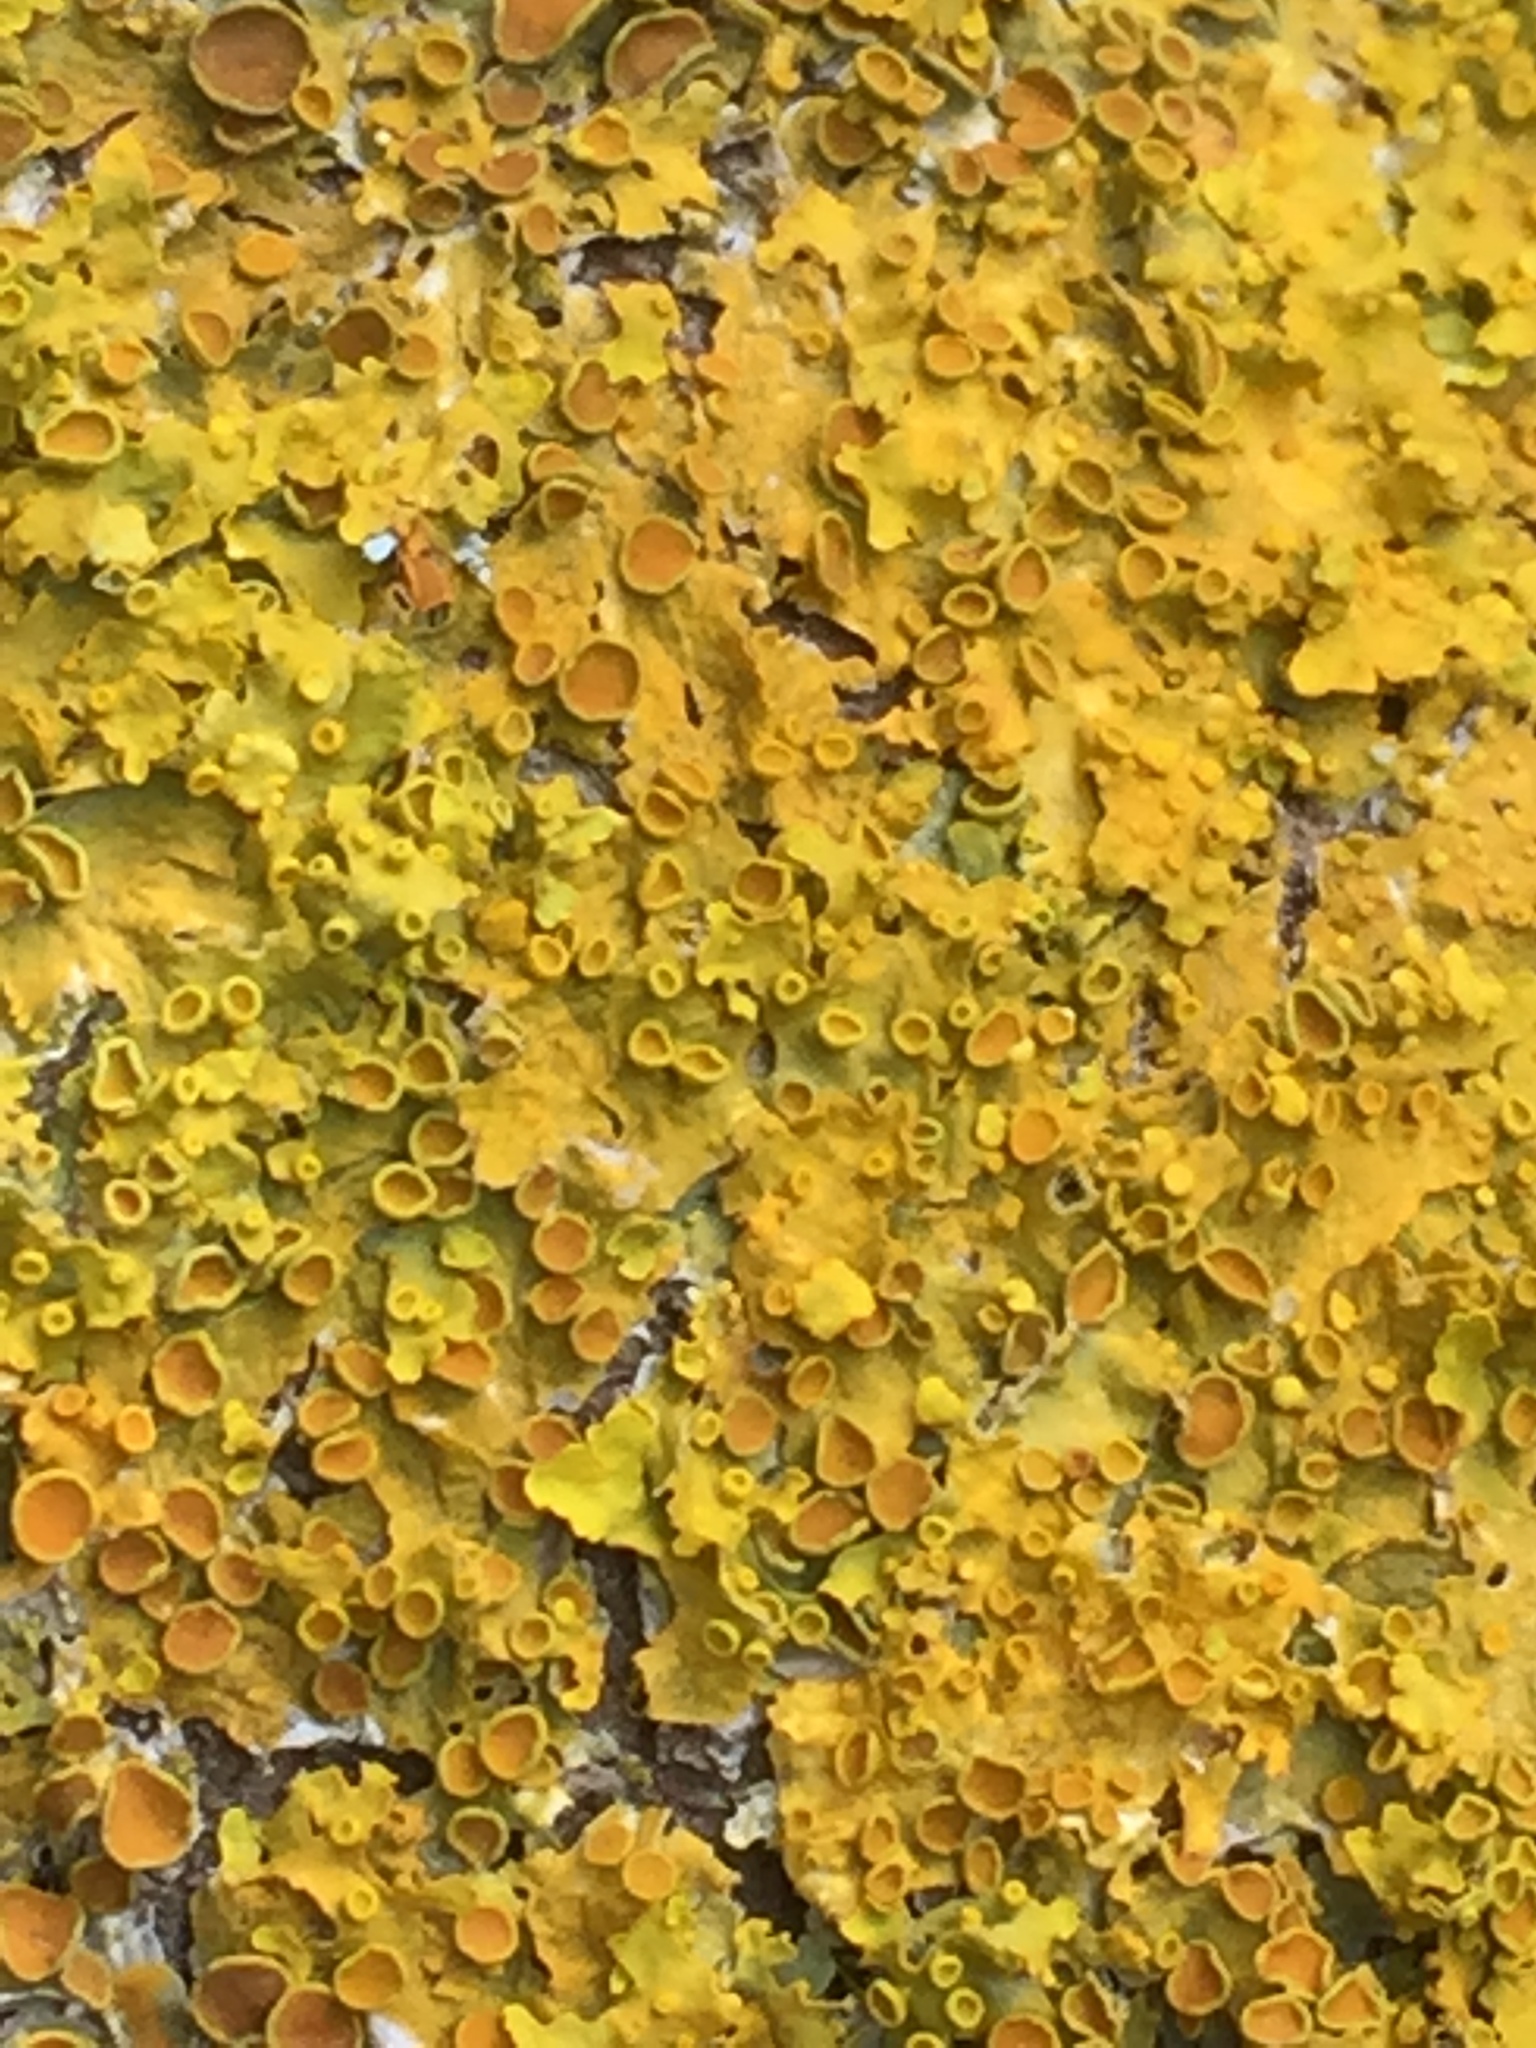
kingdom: Fungi
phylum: Ascomycota
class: Lecanoromycetes
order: Teloschistales
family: Teloschistaceae
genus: Xanthoria
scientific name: Xanthoria parietina
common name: Common orange lichen
